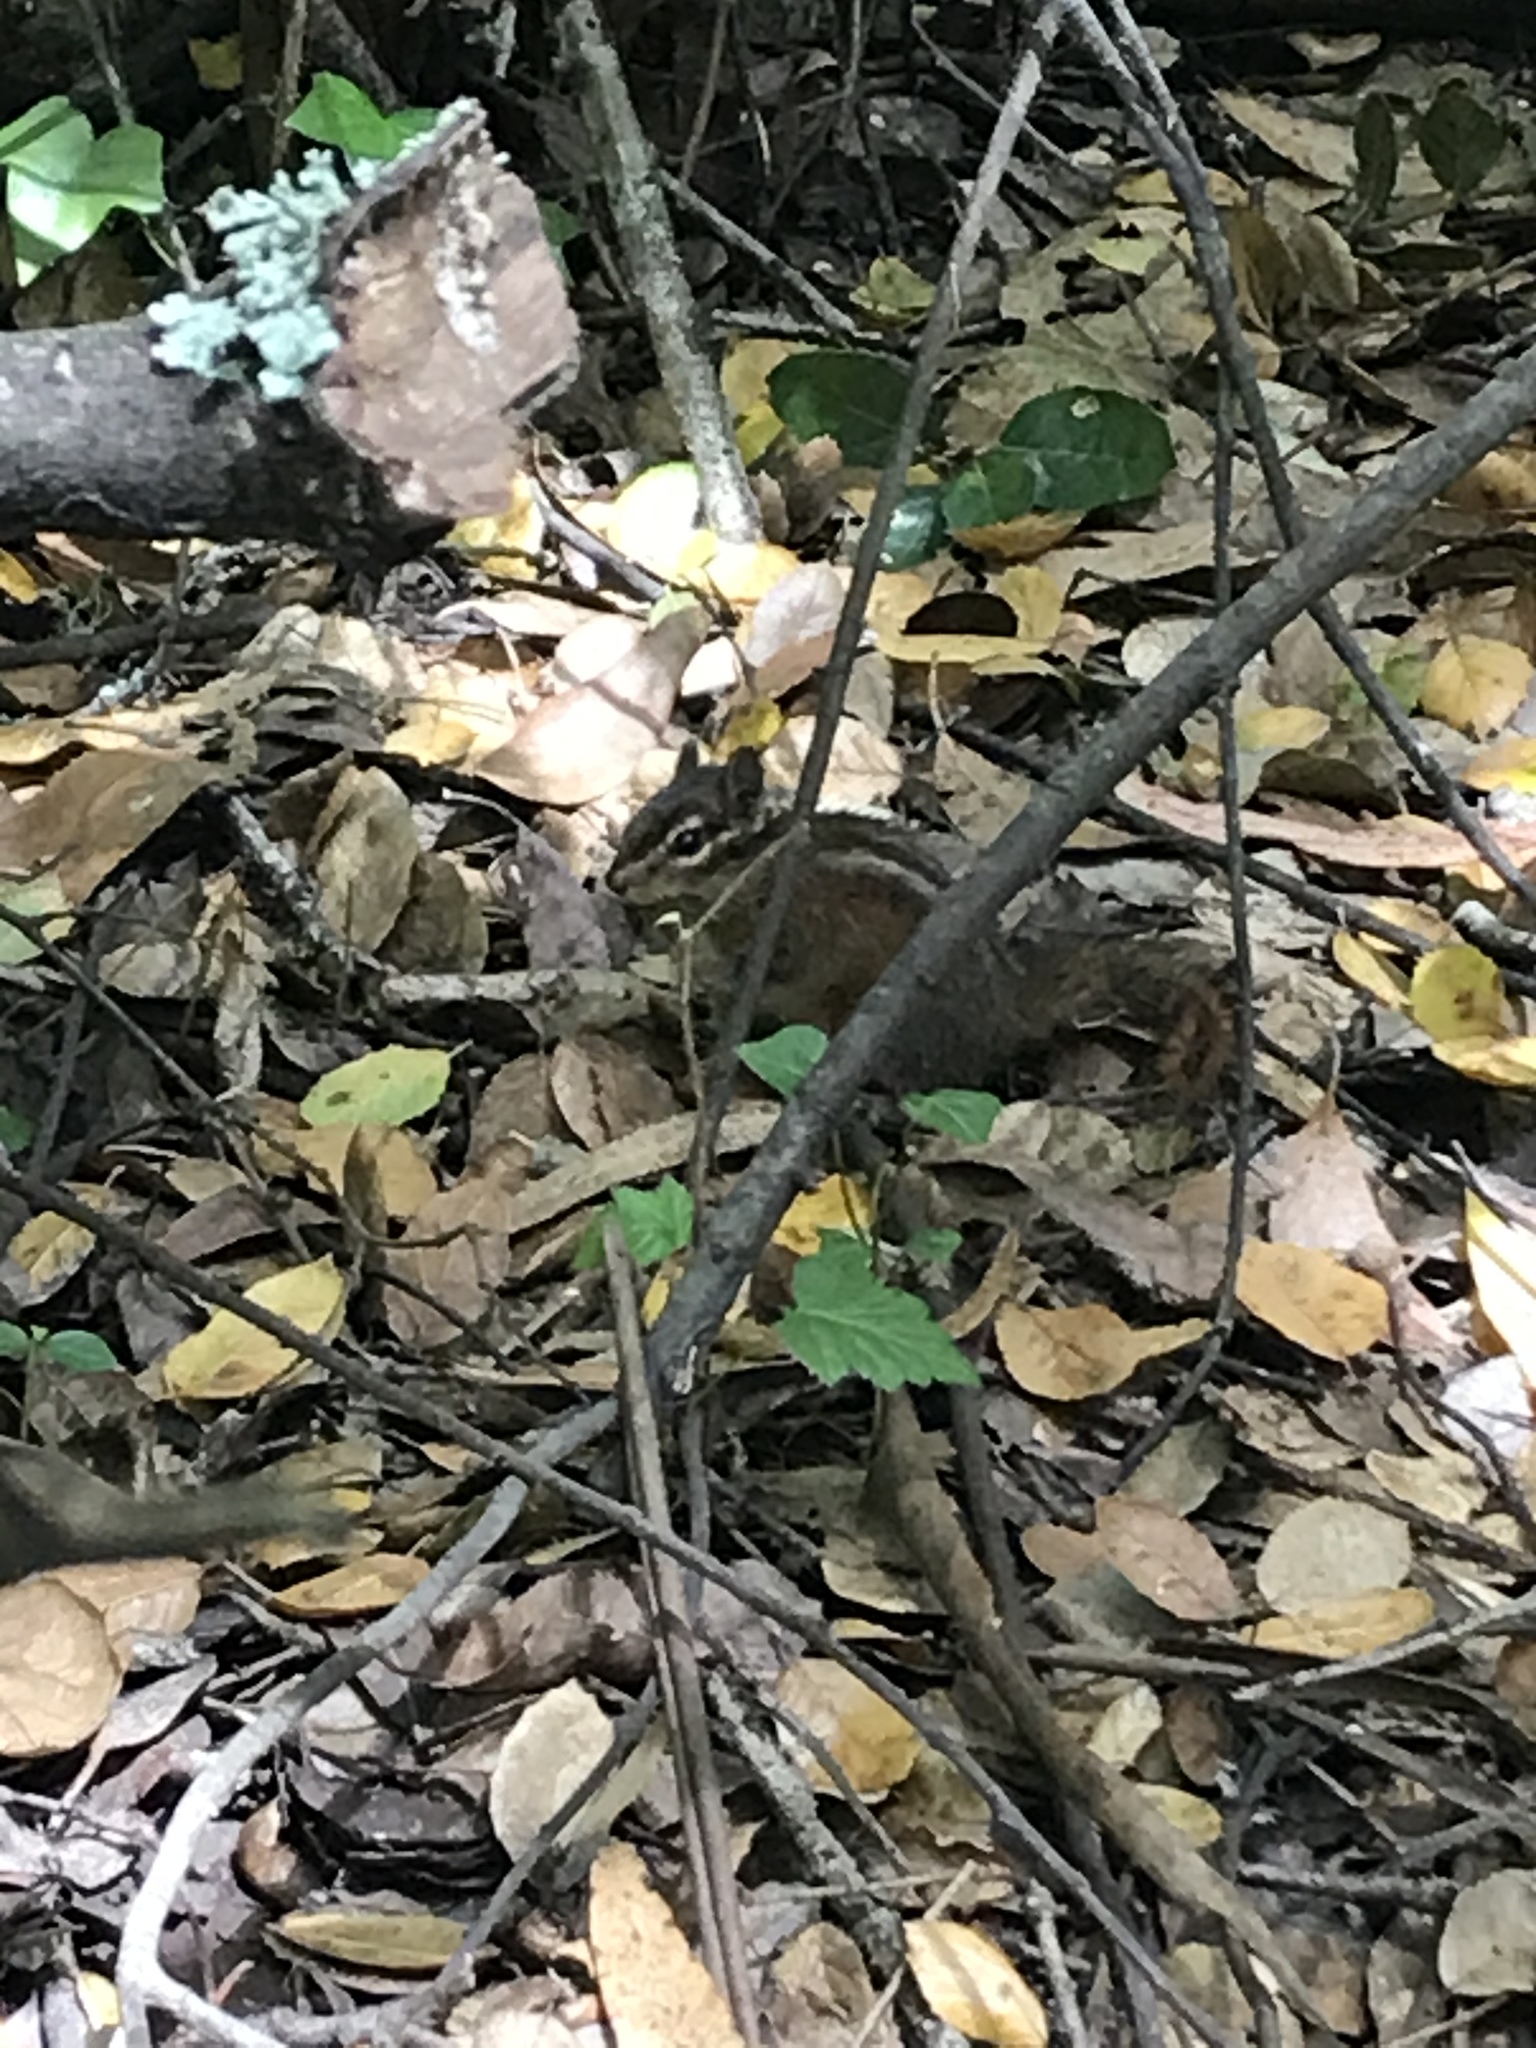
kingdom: Animalia
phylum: Chordata
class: Mammalia
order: Rodentia
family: Sciuridae
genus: Tamias
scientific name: Tamias sonomae
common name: Sonoma chipmunk
